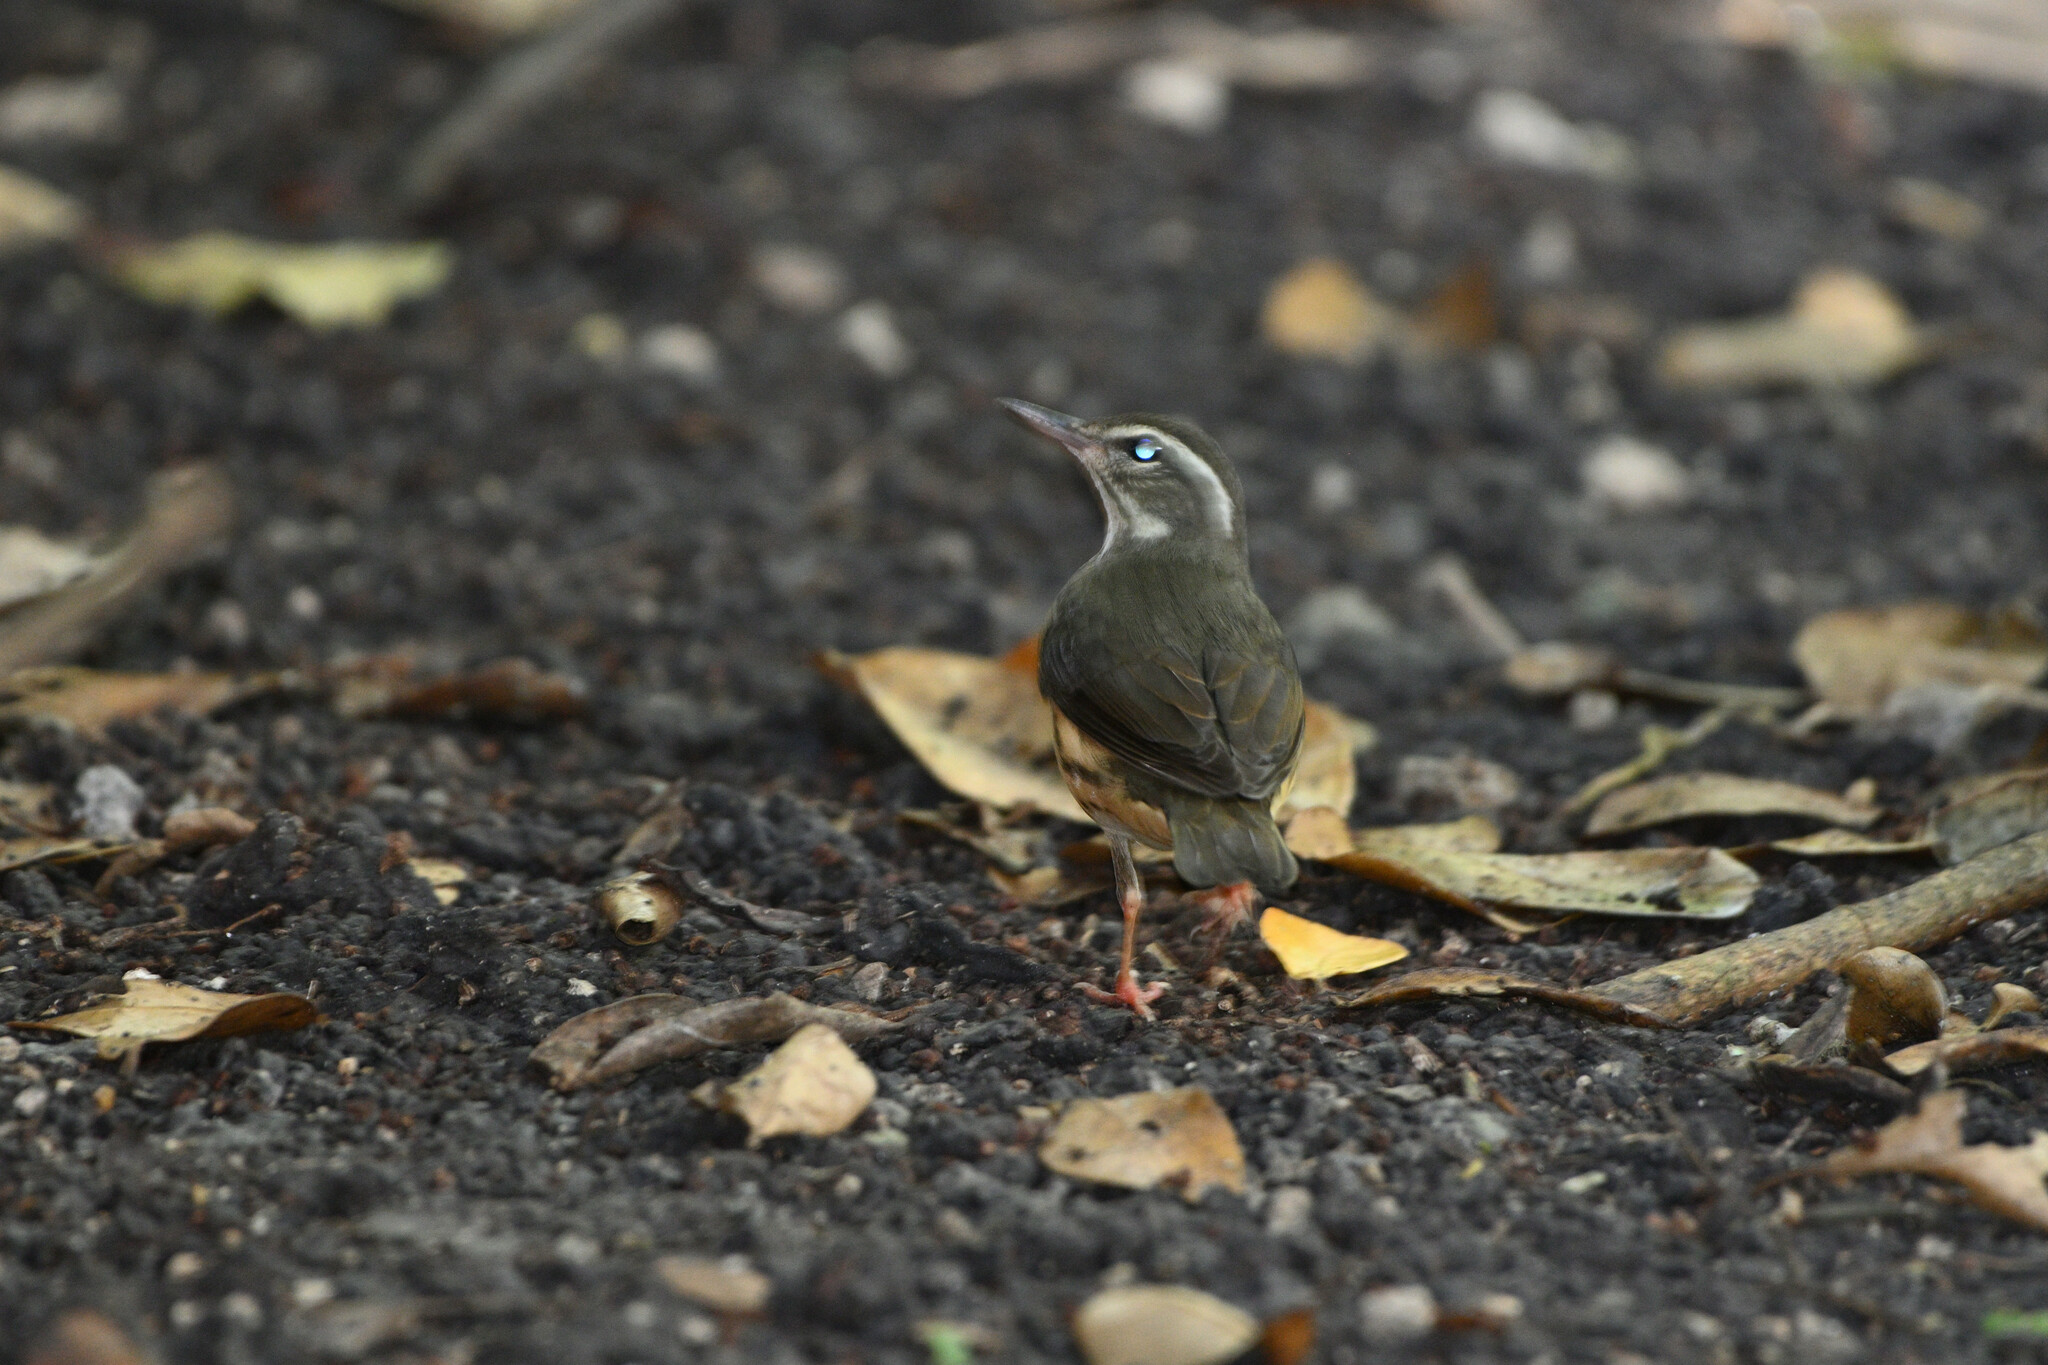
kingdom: Animalia
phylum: Chordata
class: Aves
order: Passeriformes
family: Parulidae
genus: Parkesia
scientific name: Parkesia motacilla
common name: Louisiana waterthrush
